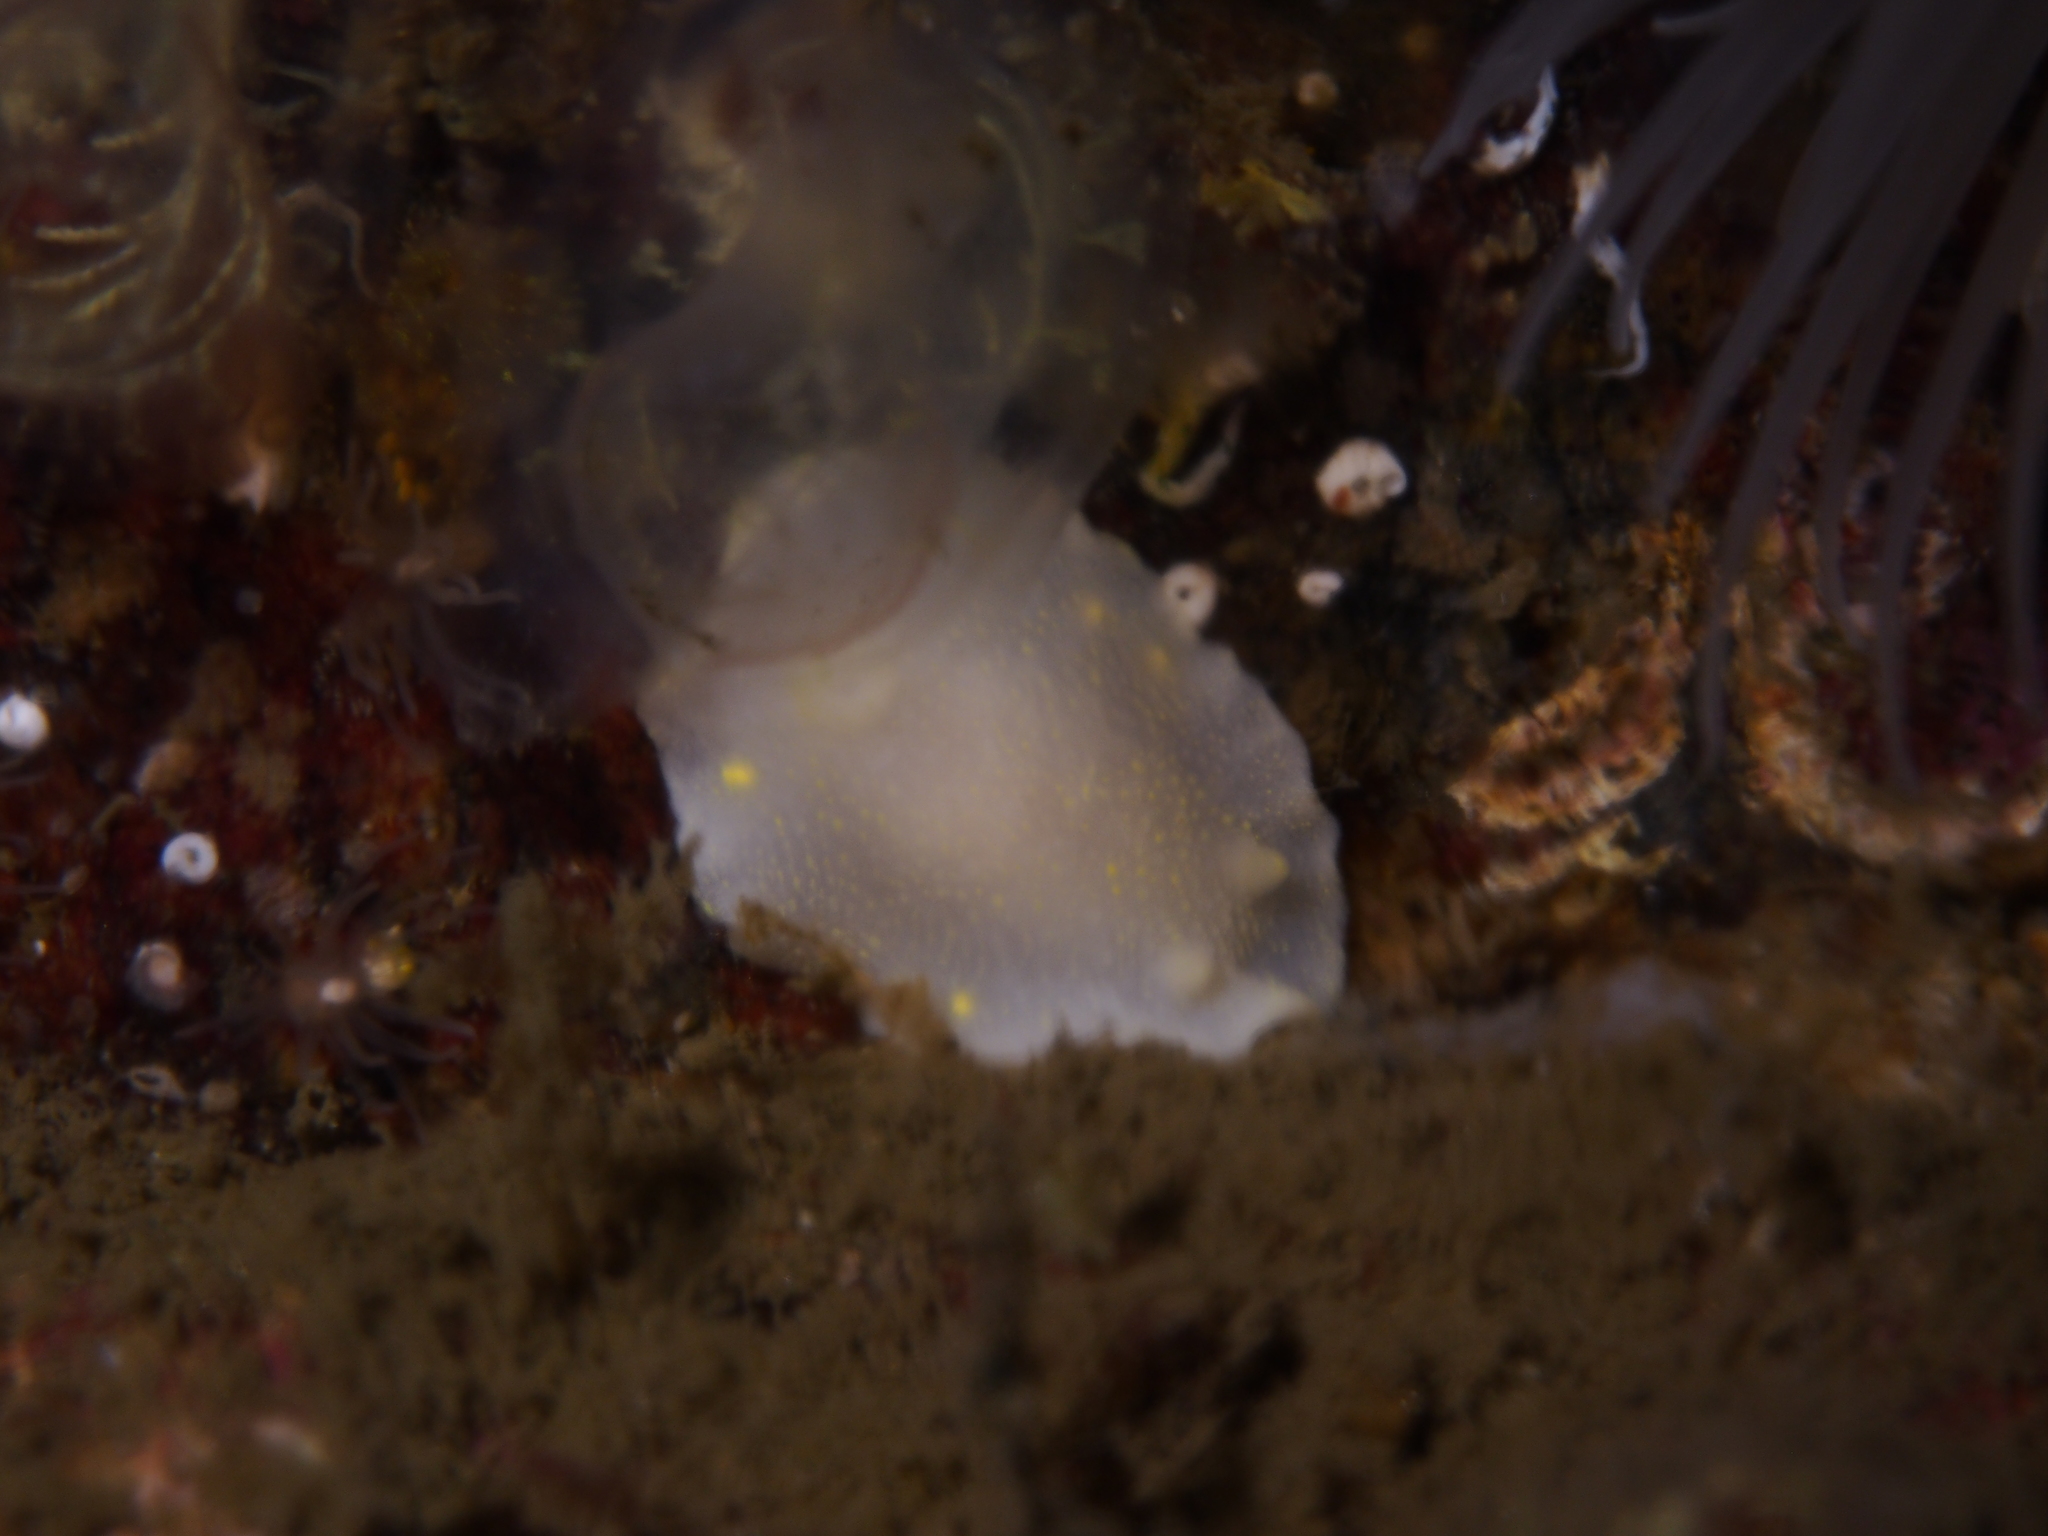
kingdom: Animalia
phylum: Mollusca
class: Gastropoda
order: Nudibranchia
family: Cadlinidae
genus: Cadlina
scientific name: Cadlina laevis
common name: White atlantic cadlina
